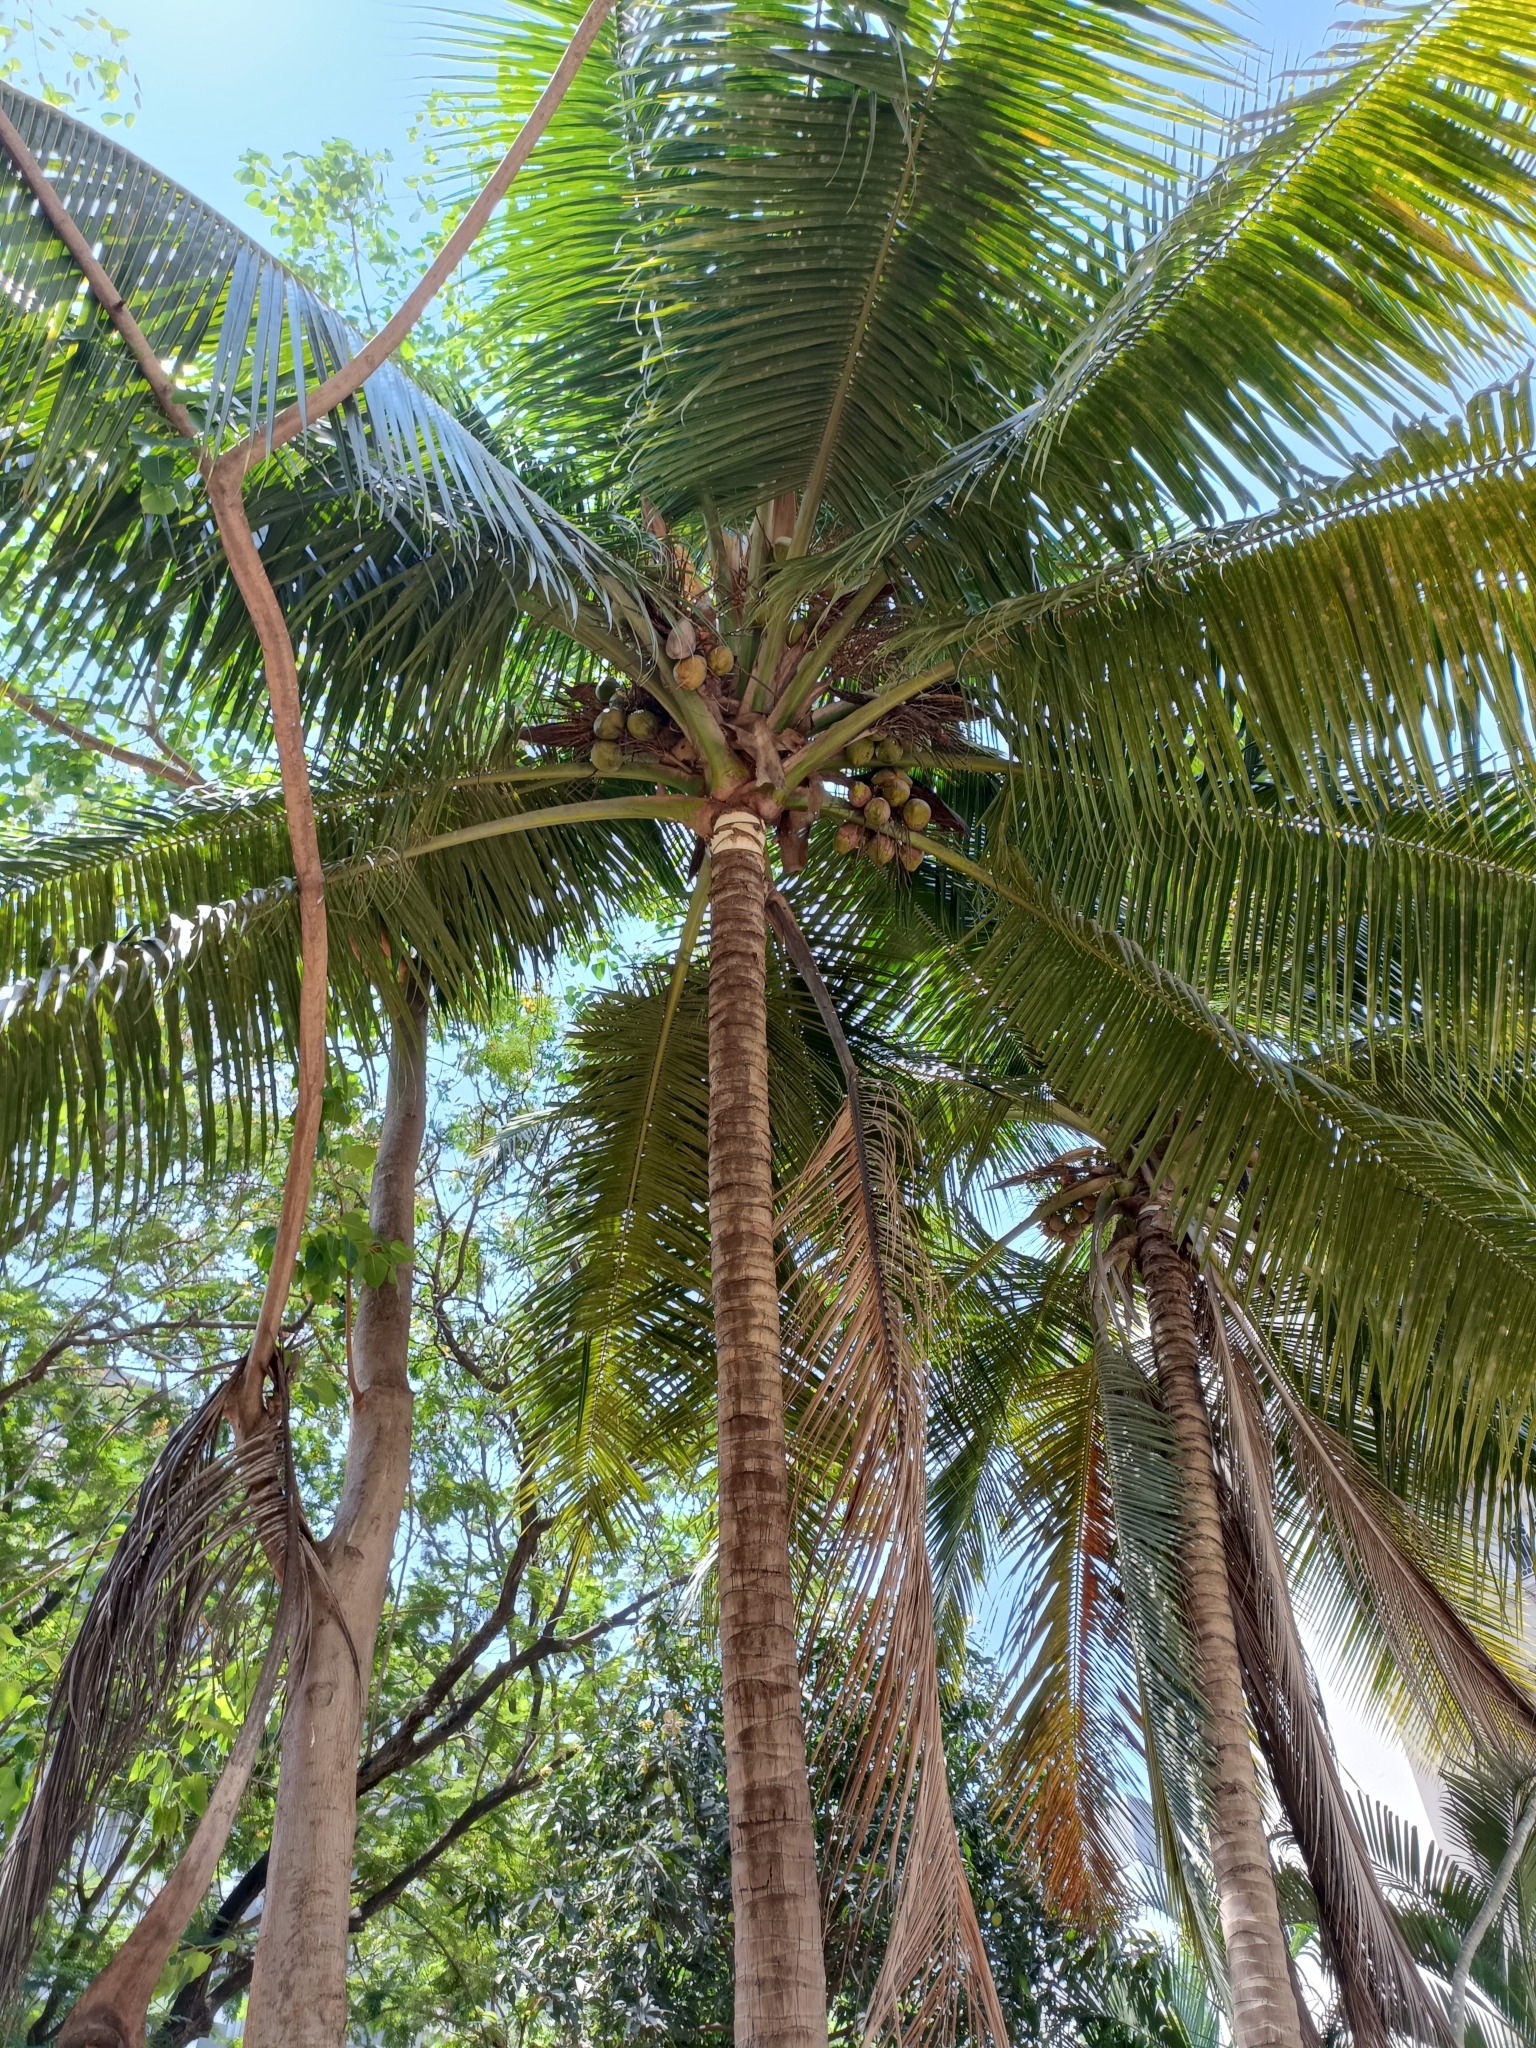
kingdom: Plantae
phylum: Tracheophyta
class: Liliopsida
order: Arecales
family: Arecaceae
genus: Cocos
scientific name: Cocos nucifera
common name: Coconut palm
